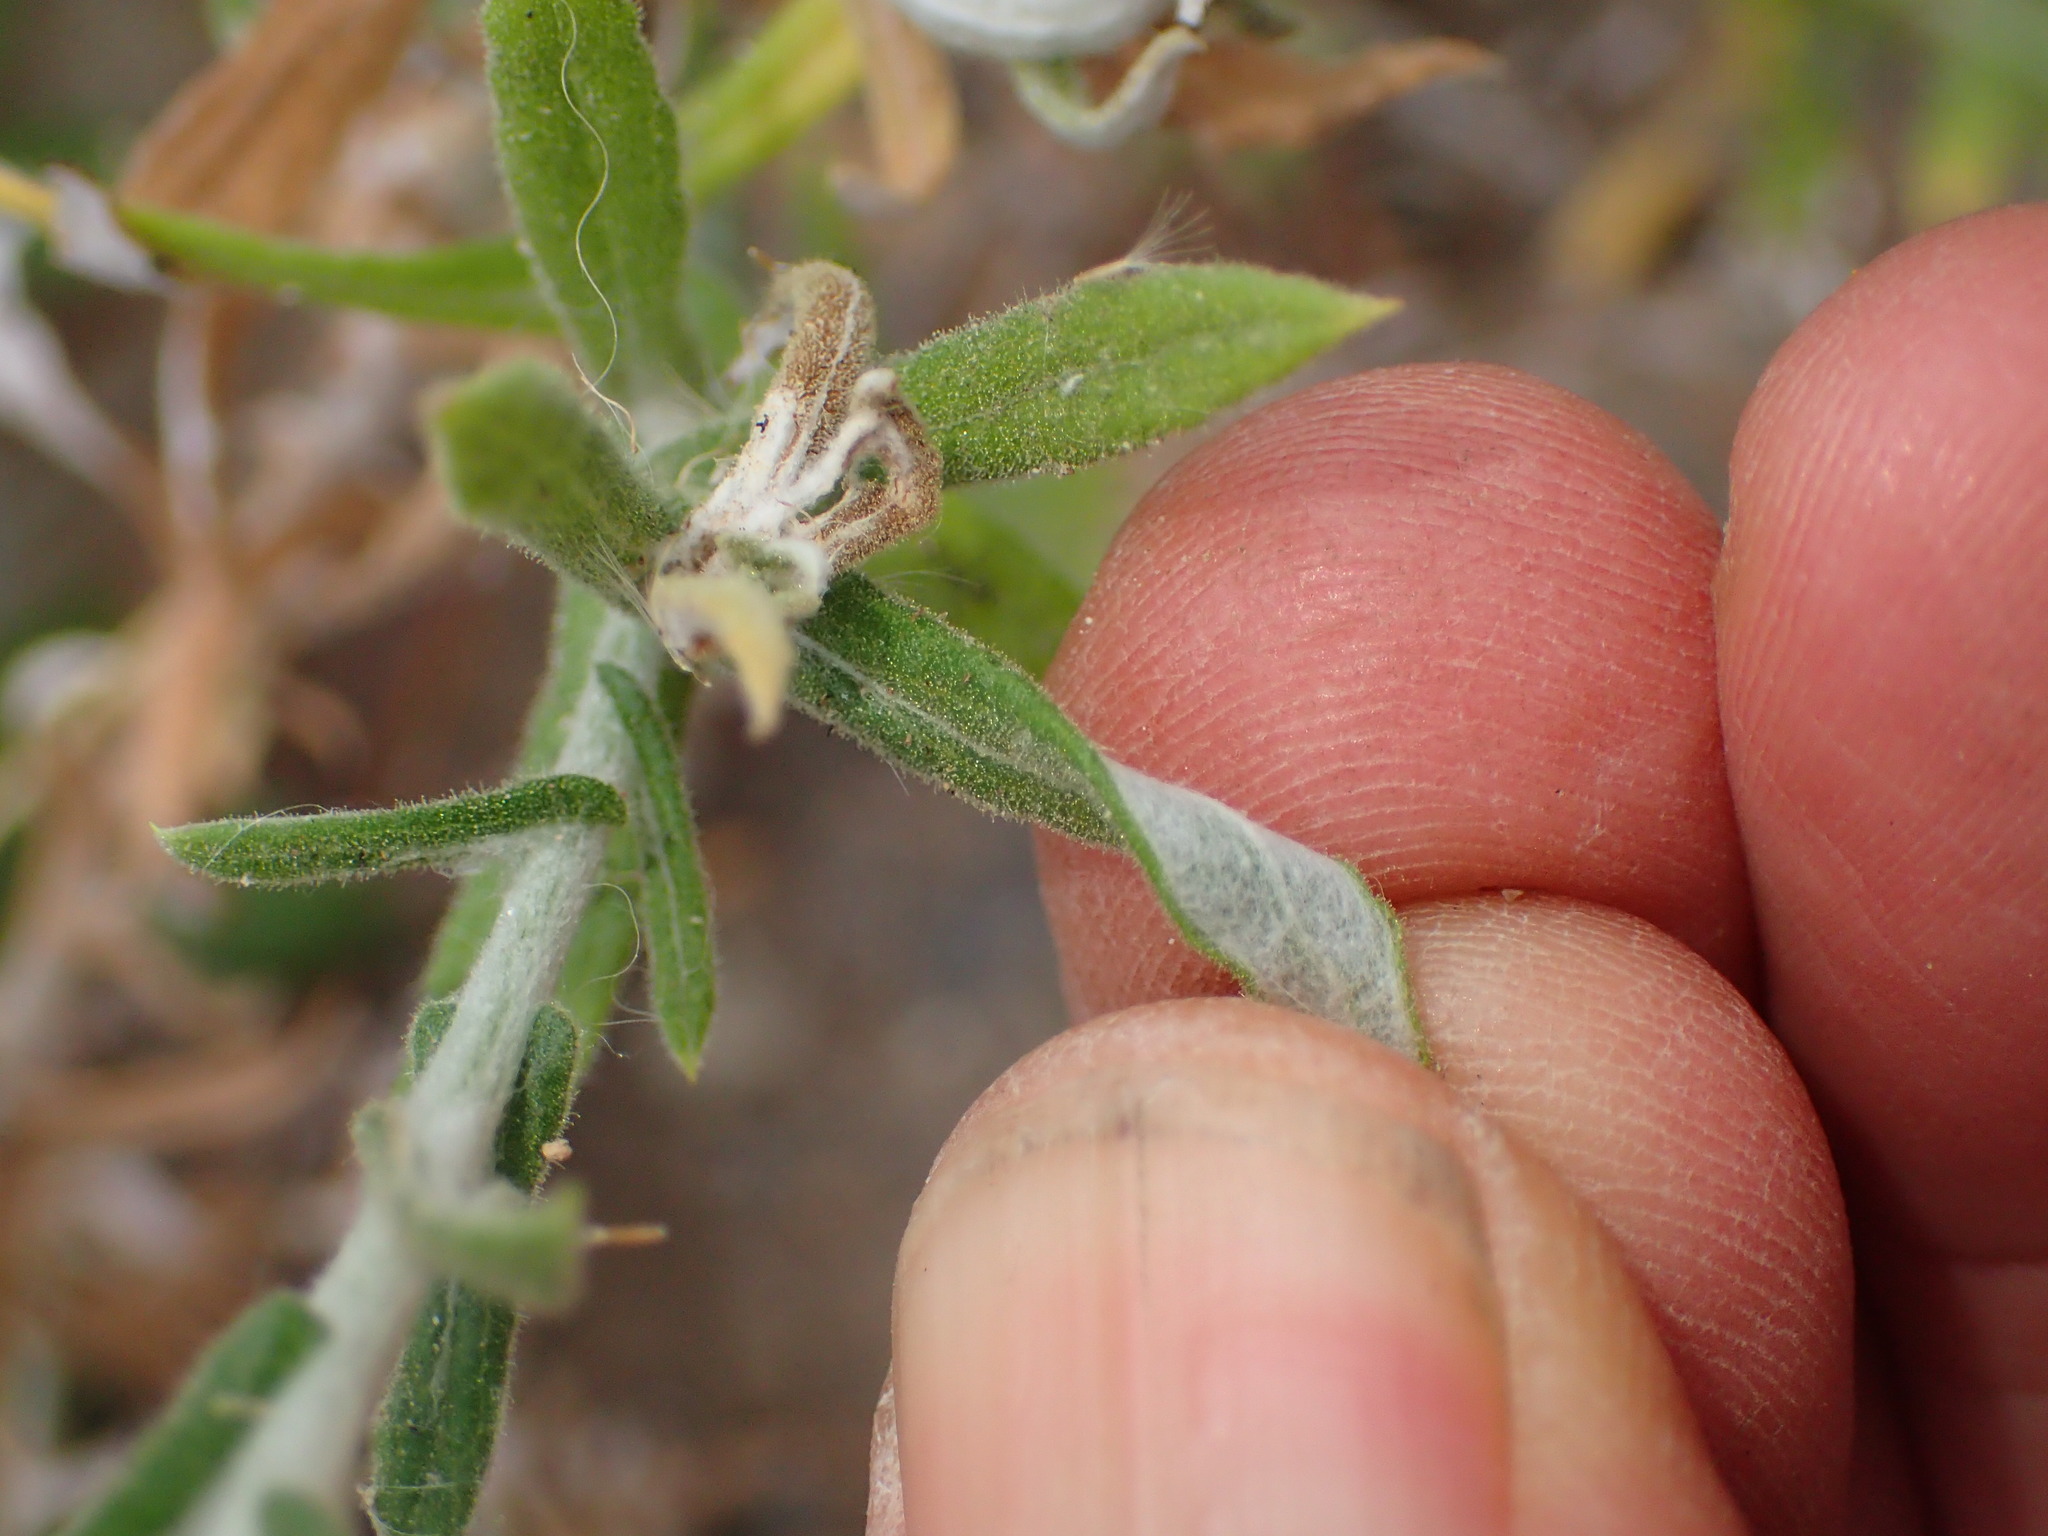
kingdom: Plantae
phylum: Tracheophyta
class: Magnoliopsida
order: Asterales
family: Asteraceae
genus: Pseudognaphalium
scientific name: Pseudognaphalium biolettii
